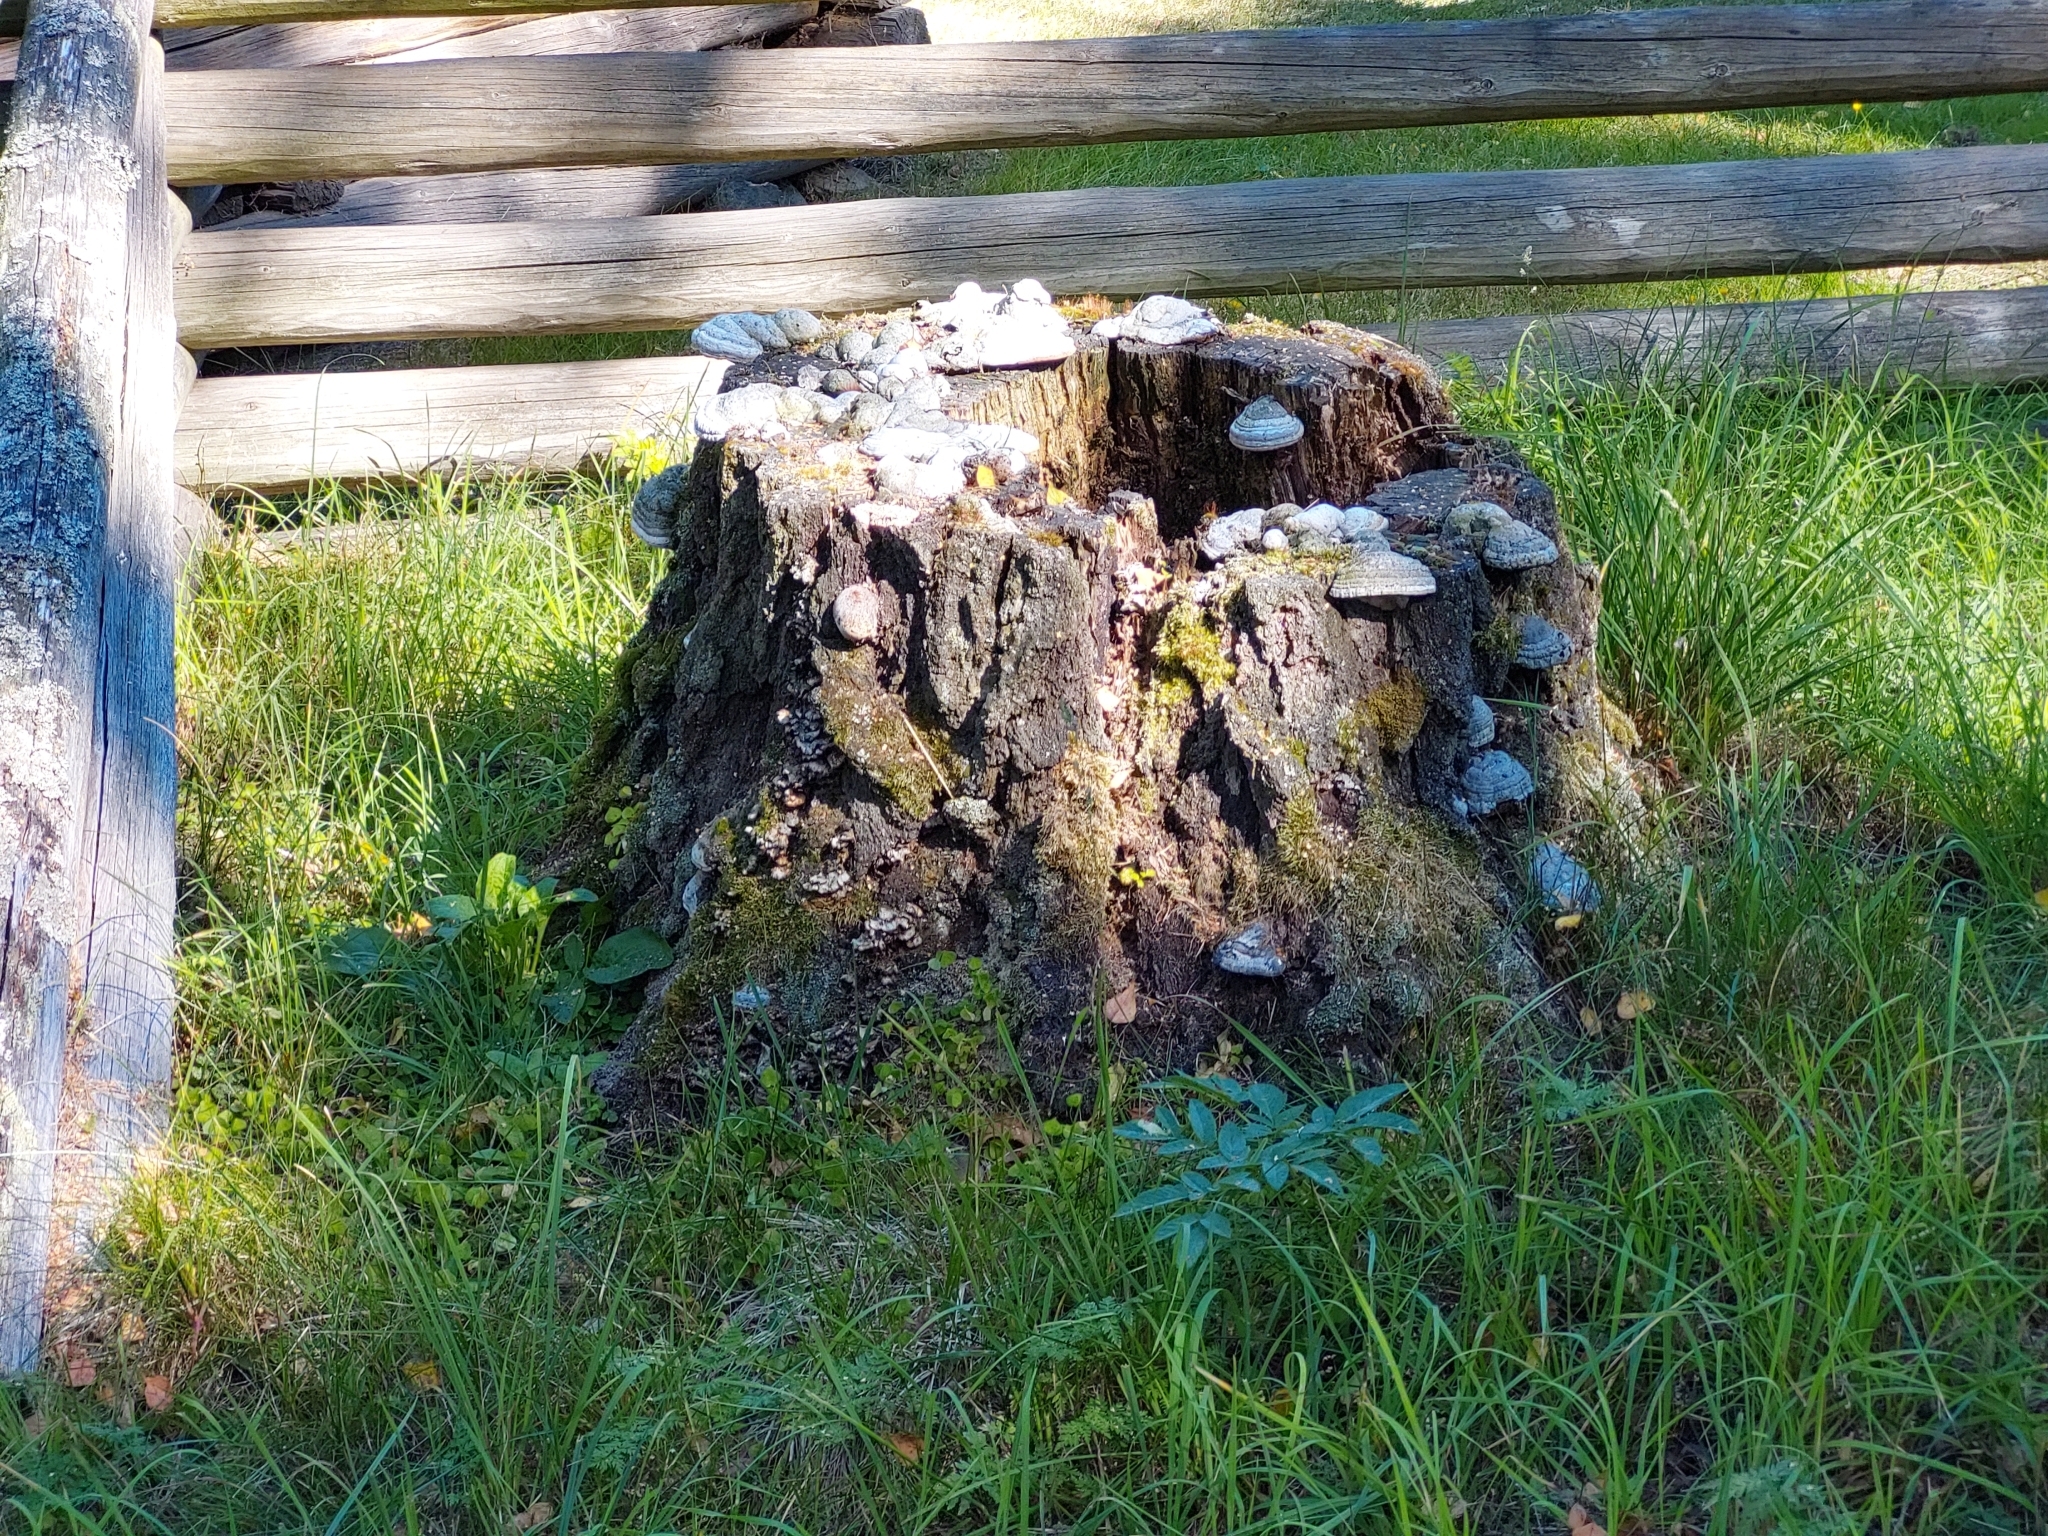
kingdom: Fungi
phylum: Basidiomycota
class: Agaricomycetes
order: Polyporales
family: Polyporaceae
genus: Fomes
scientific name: Fomes fomentarius
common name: Hoof fungus
